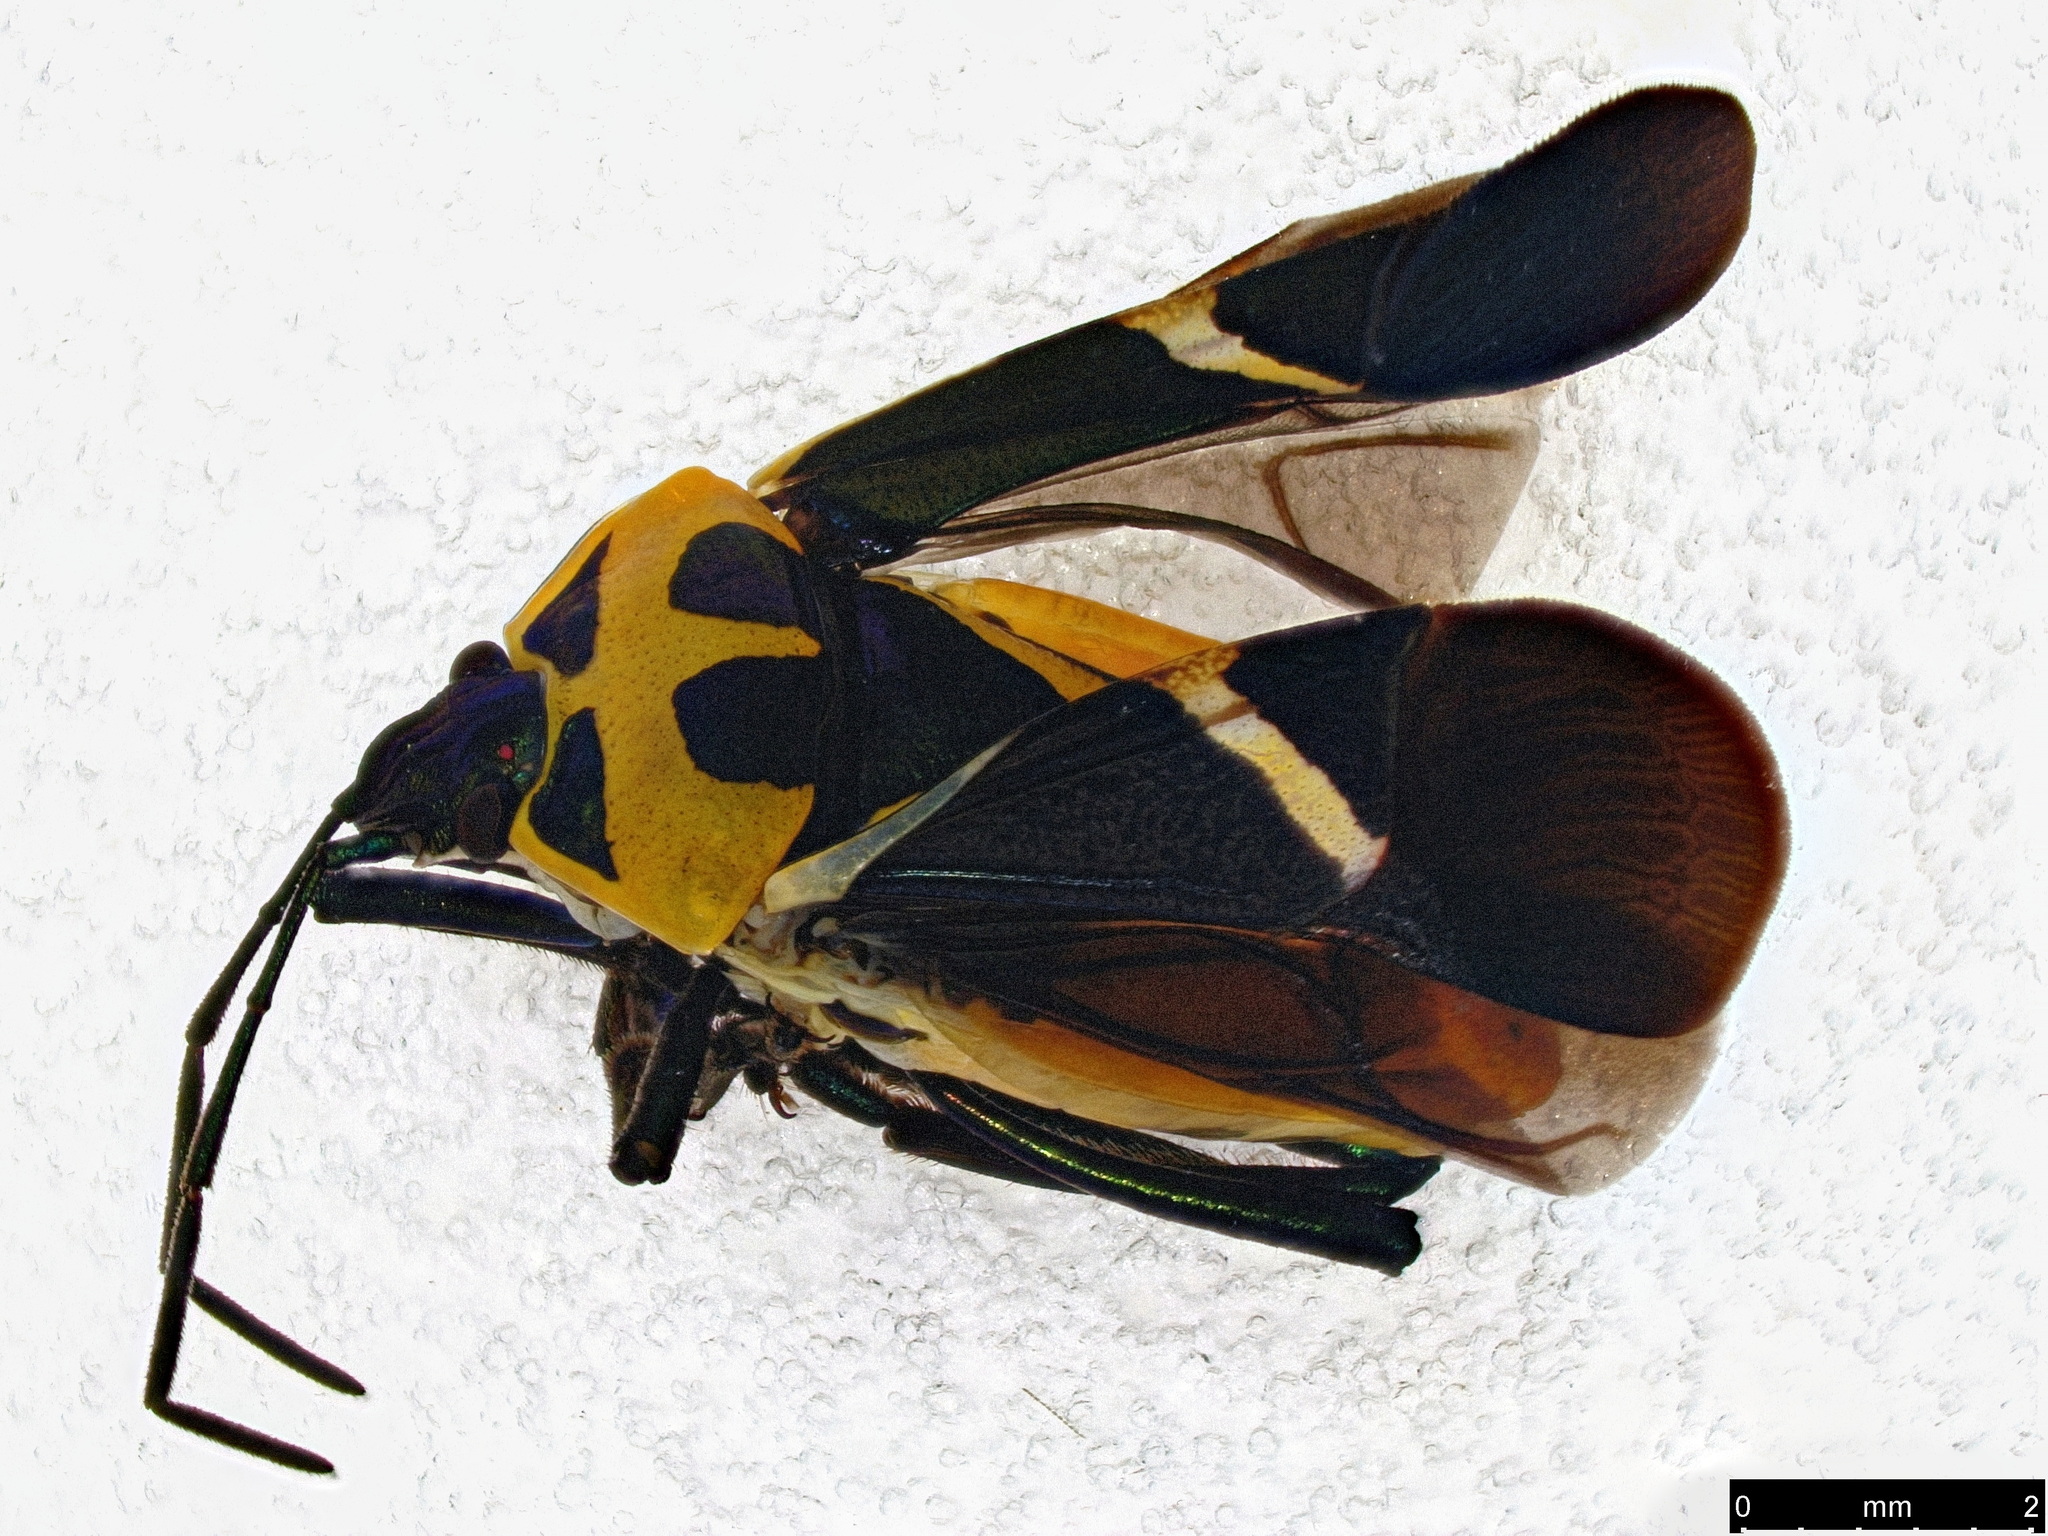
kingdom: Animalia
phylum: Arthropoda
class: Insecta
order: Hemiptera
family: Pentatomidae
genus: Commius
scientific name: Commius
